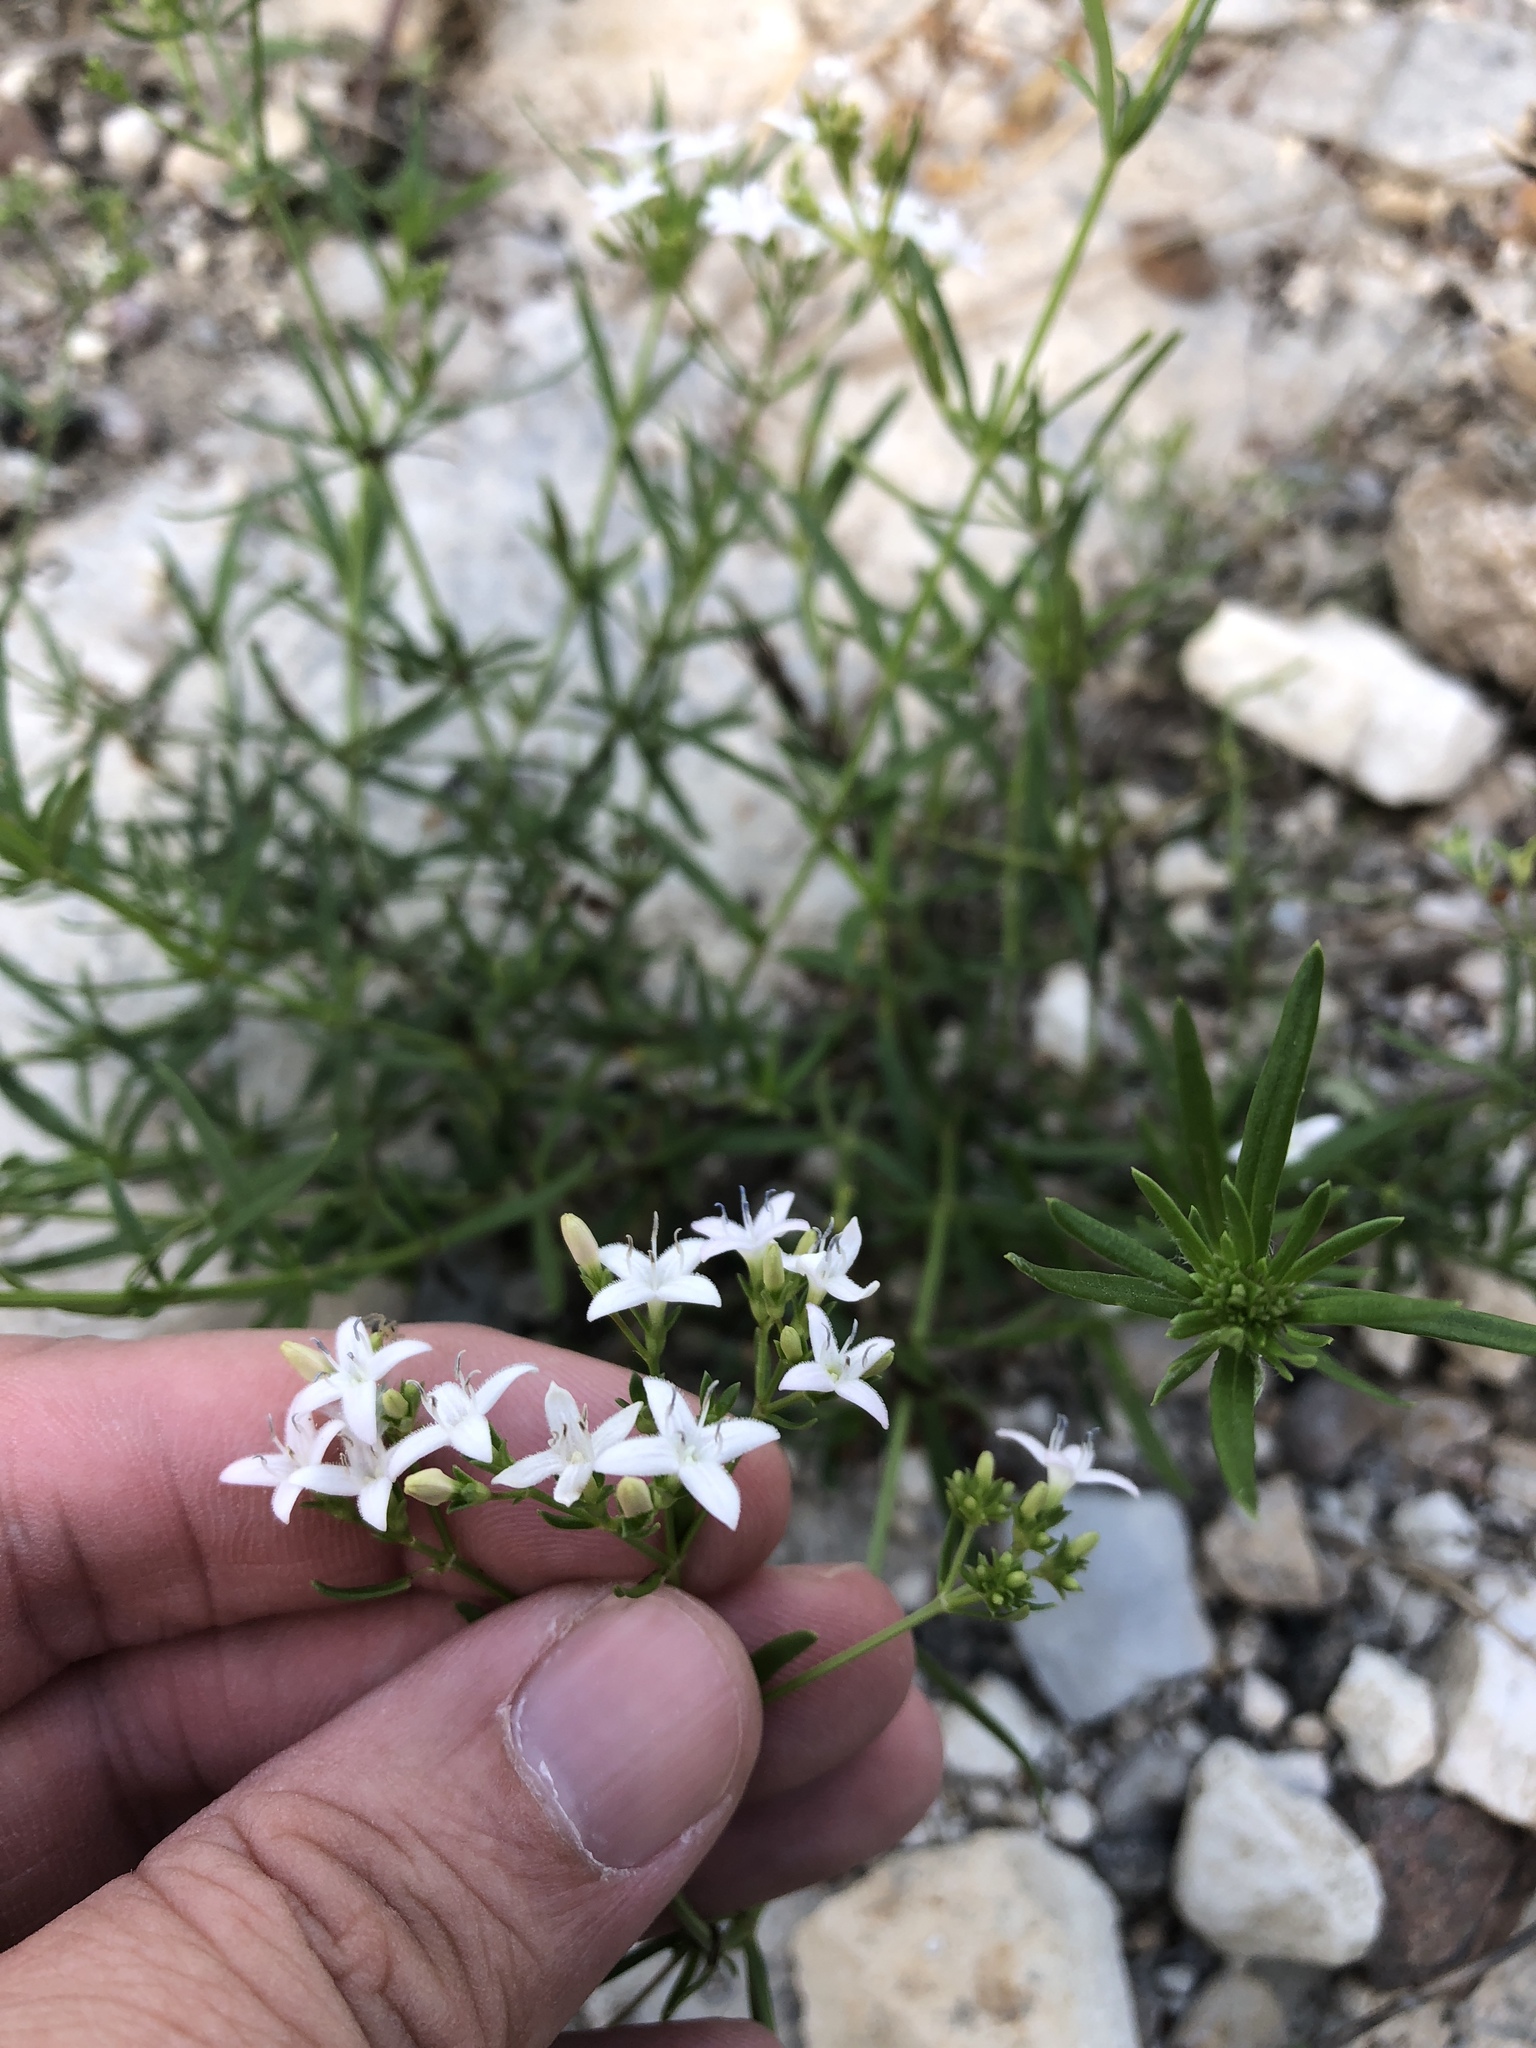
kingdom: Plantae
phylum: Tracheophyta
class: Magnoliopsida
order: Gentianales
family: Rubiaceae
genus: Stenaria
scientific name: Stenaria nigricans
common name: Diamondflowers
